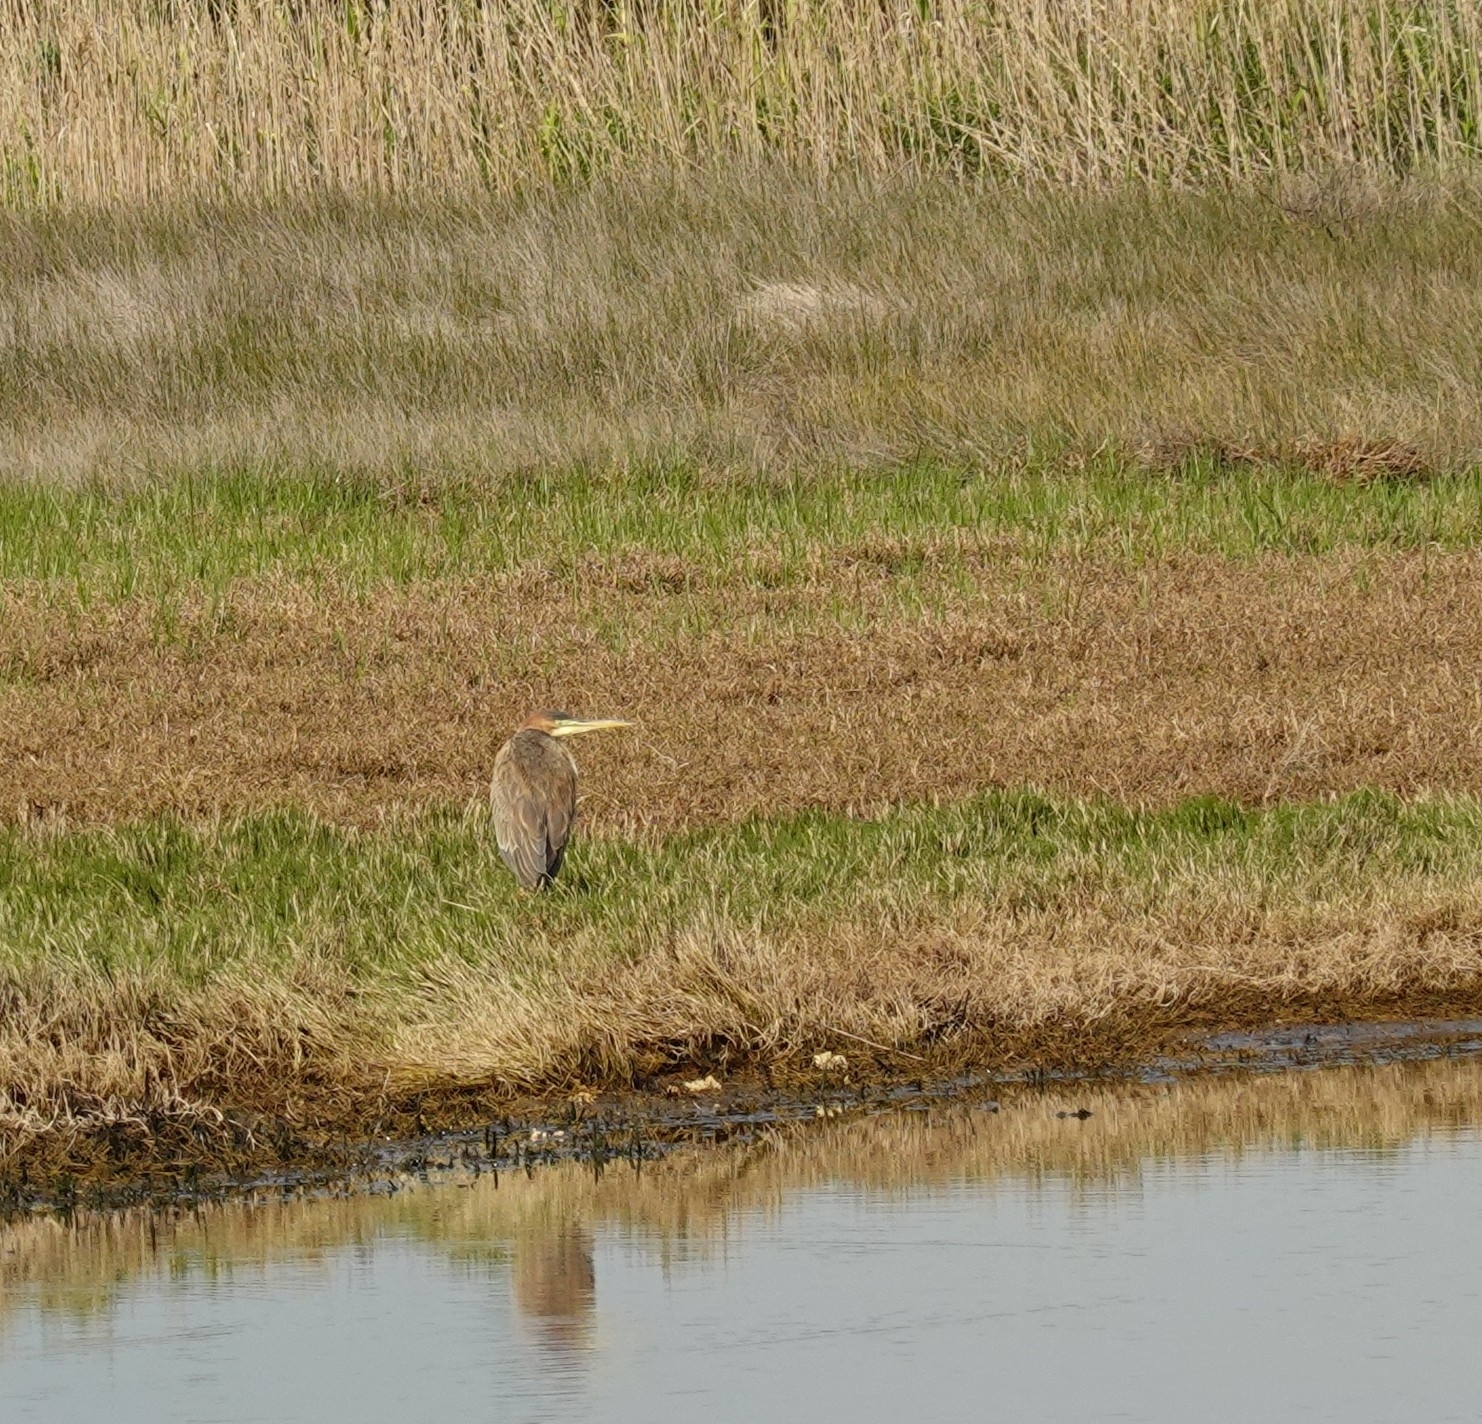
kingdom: Animalia
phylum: Chordata
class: Aves
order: Pelecaniformes
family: Ardeidae
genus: Ardea
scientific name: Ardea purpurea
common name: Purple heron
